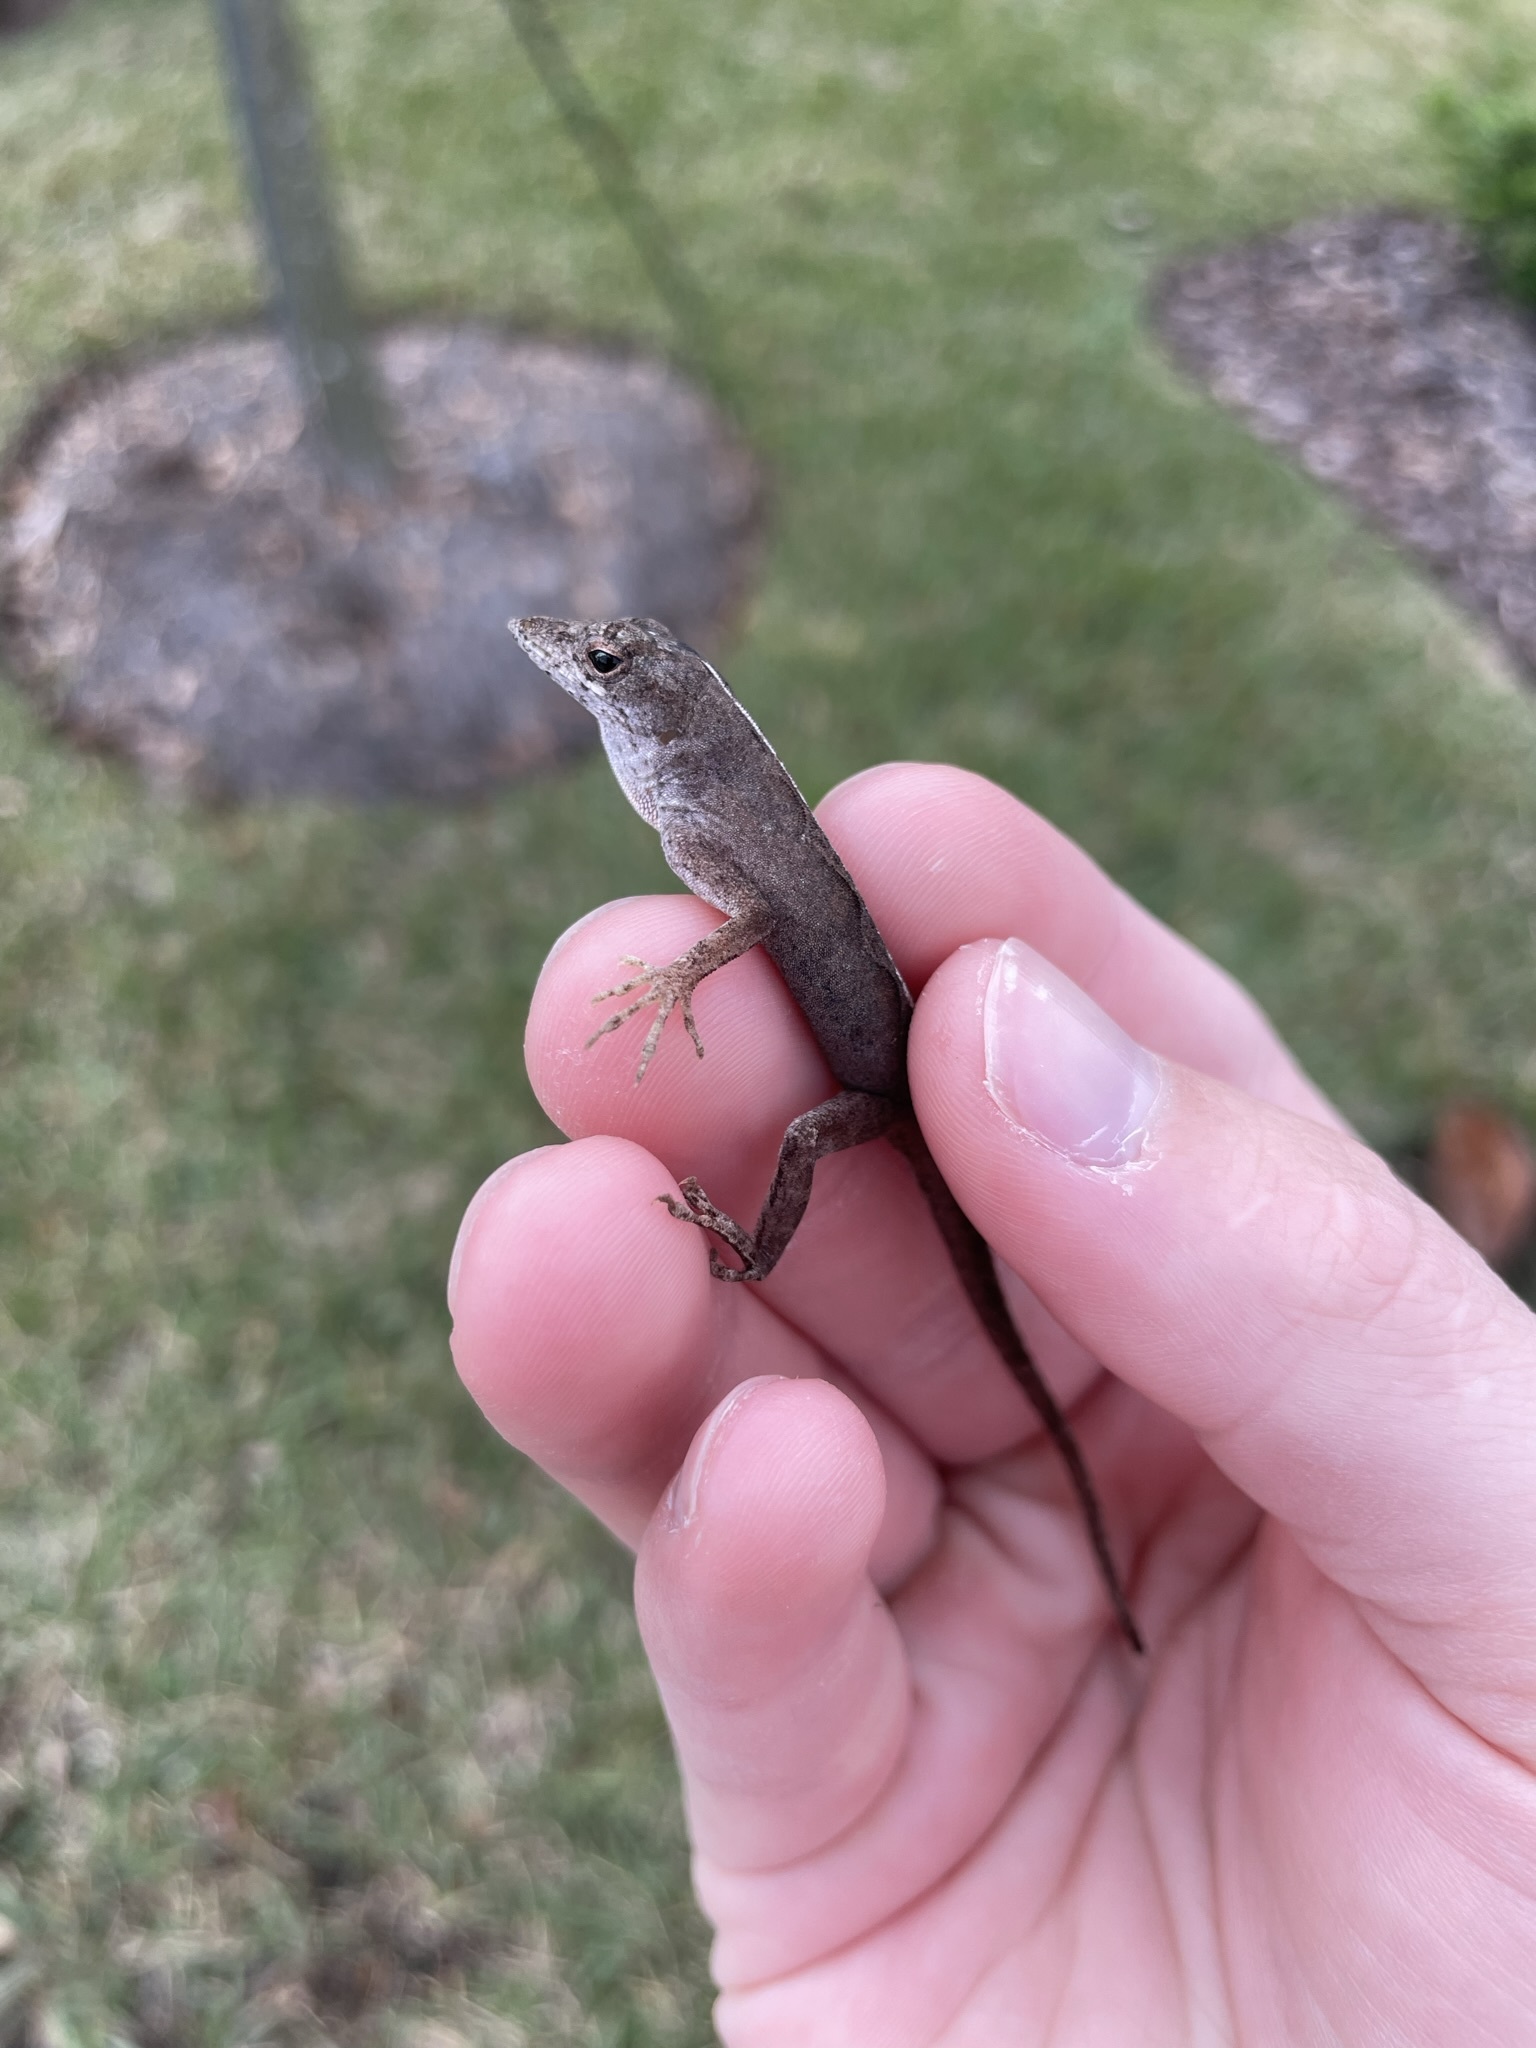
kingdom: Animalia
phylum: Chordata
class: Squamata
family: Dactyloidae
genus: Anolis
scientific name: Anolis sagrei
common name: Brown anole
